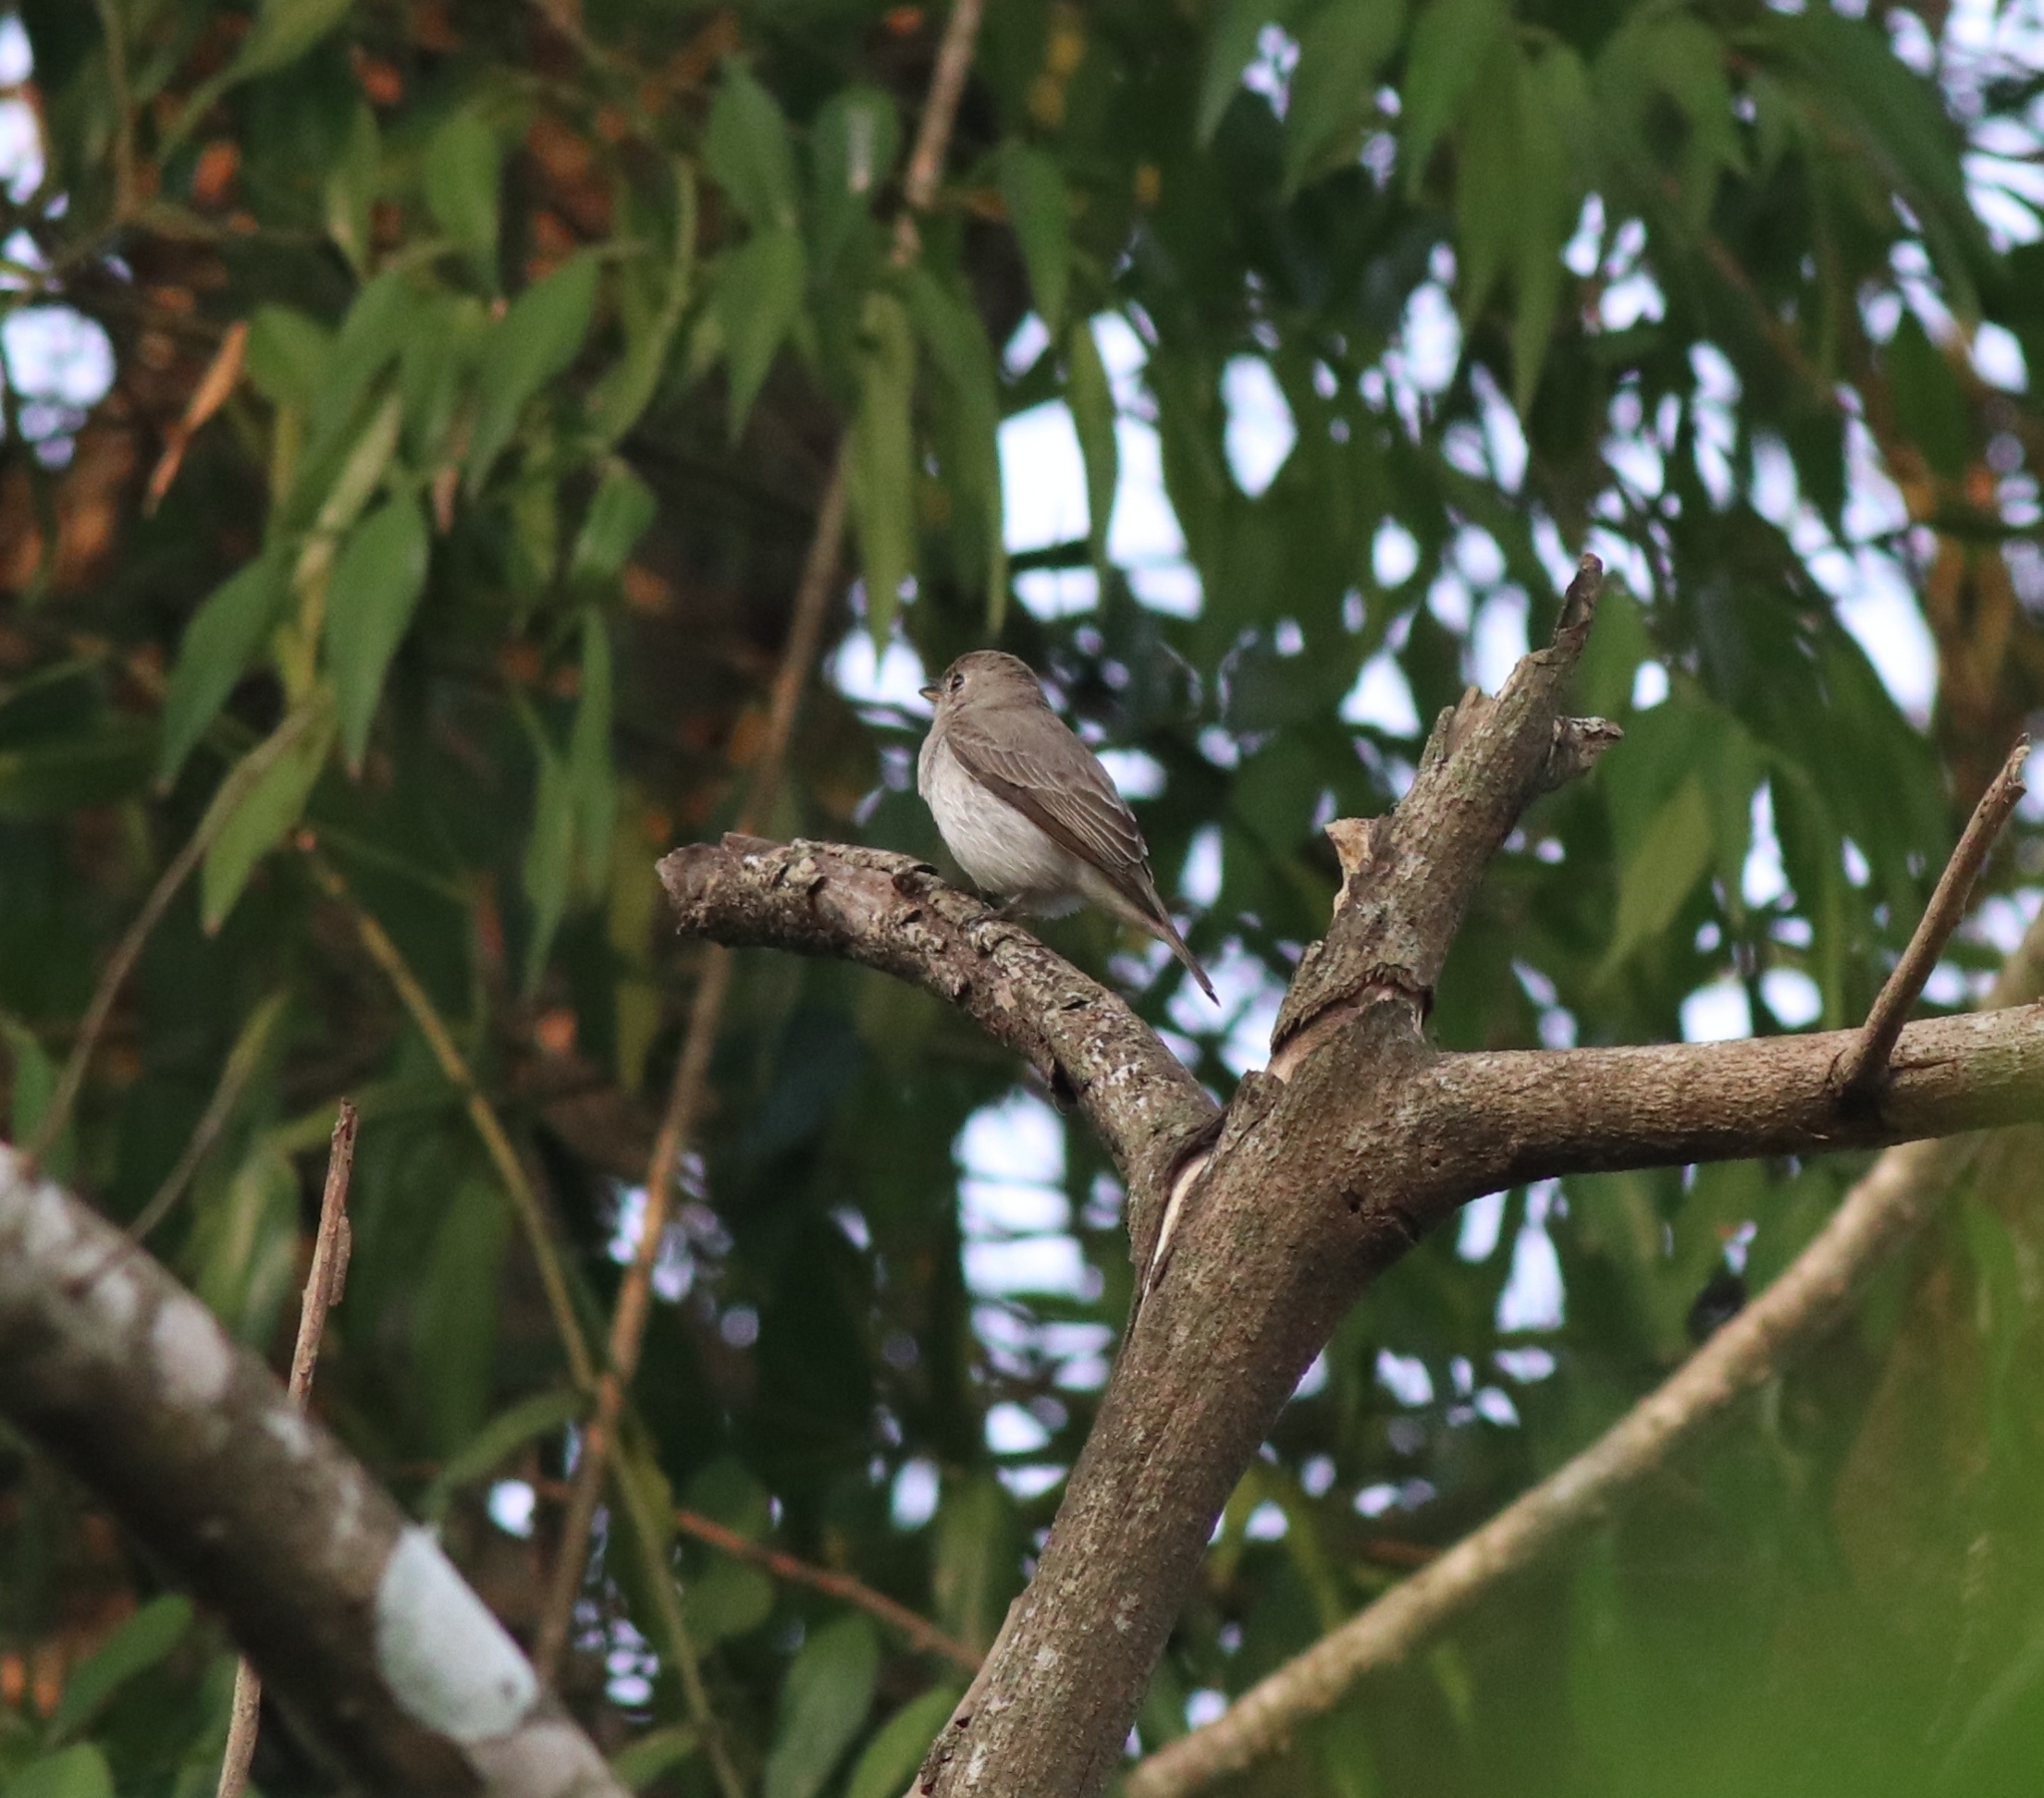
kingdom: Animalia
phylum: Chordata
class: Aves
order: Passeriformes
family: Muscicapidae
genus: Muscicapa
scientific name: Muscicapa latirostris
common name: Asian brown flycatcher
